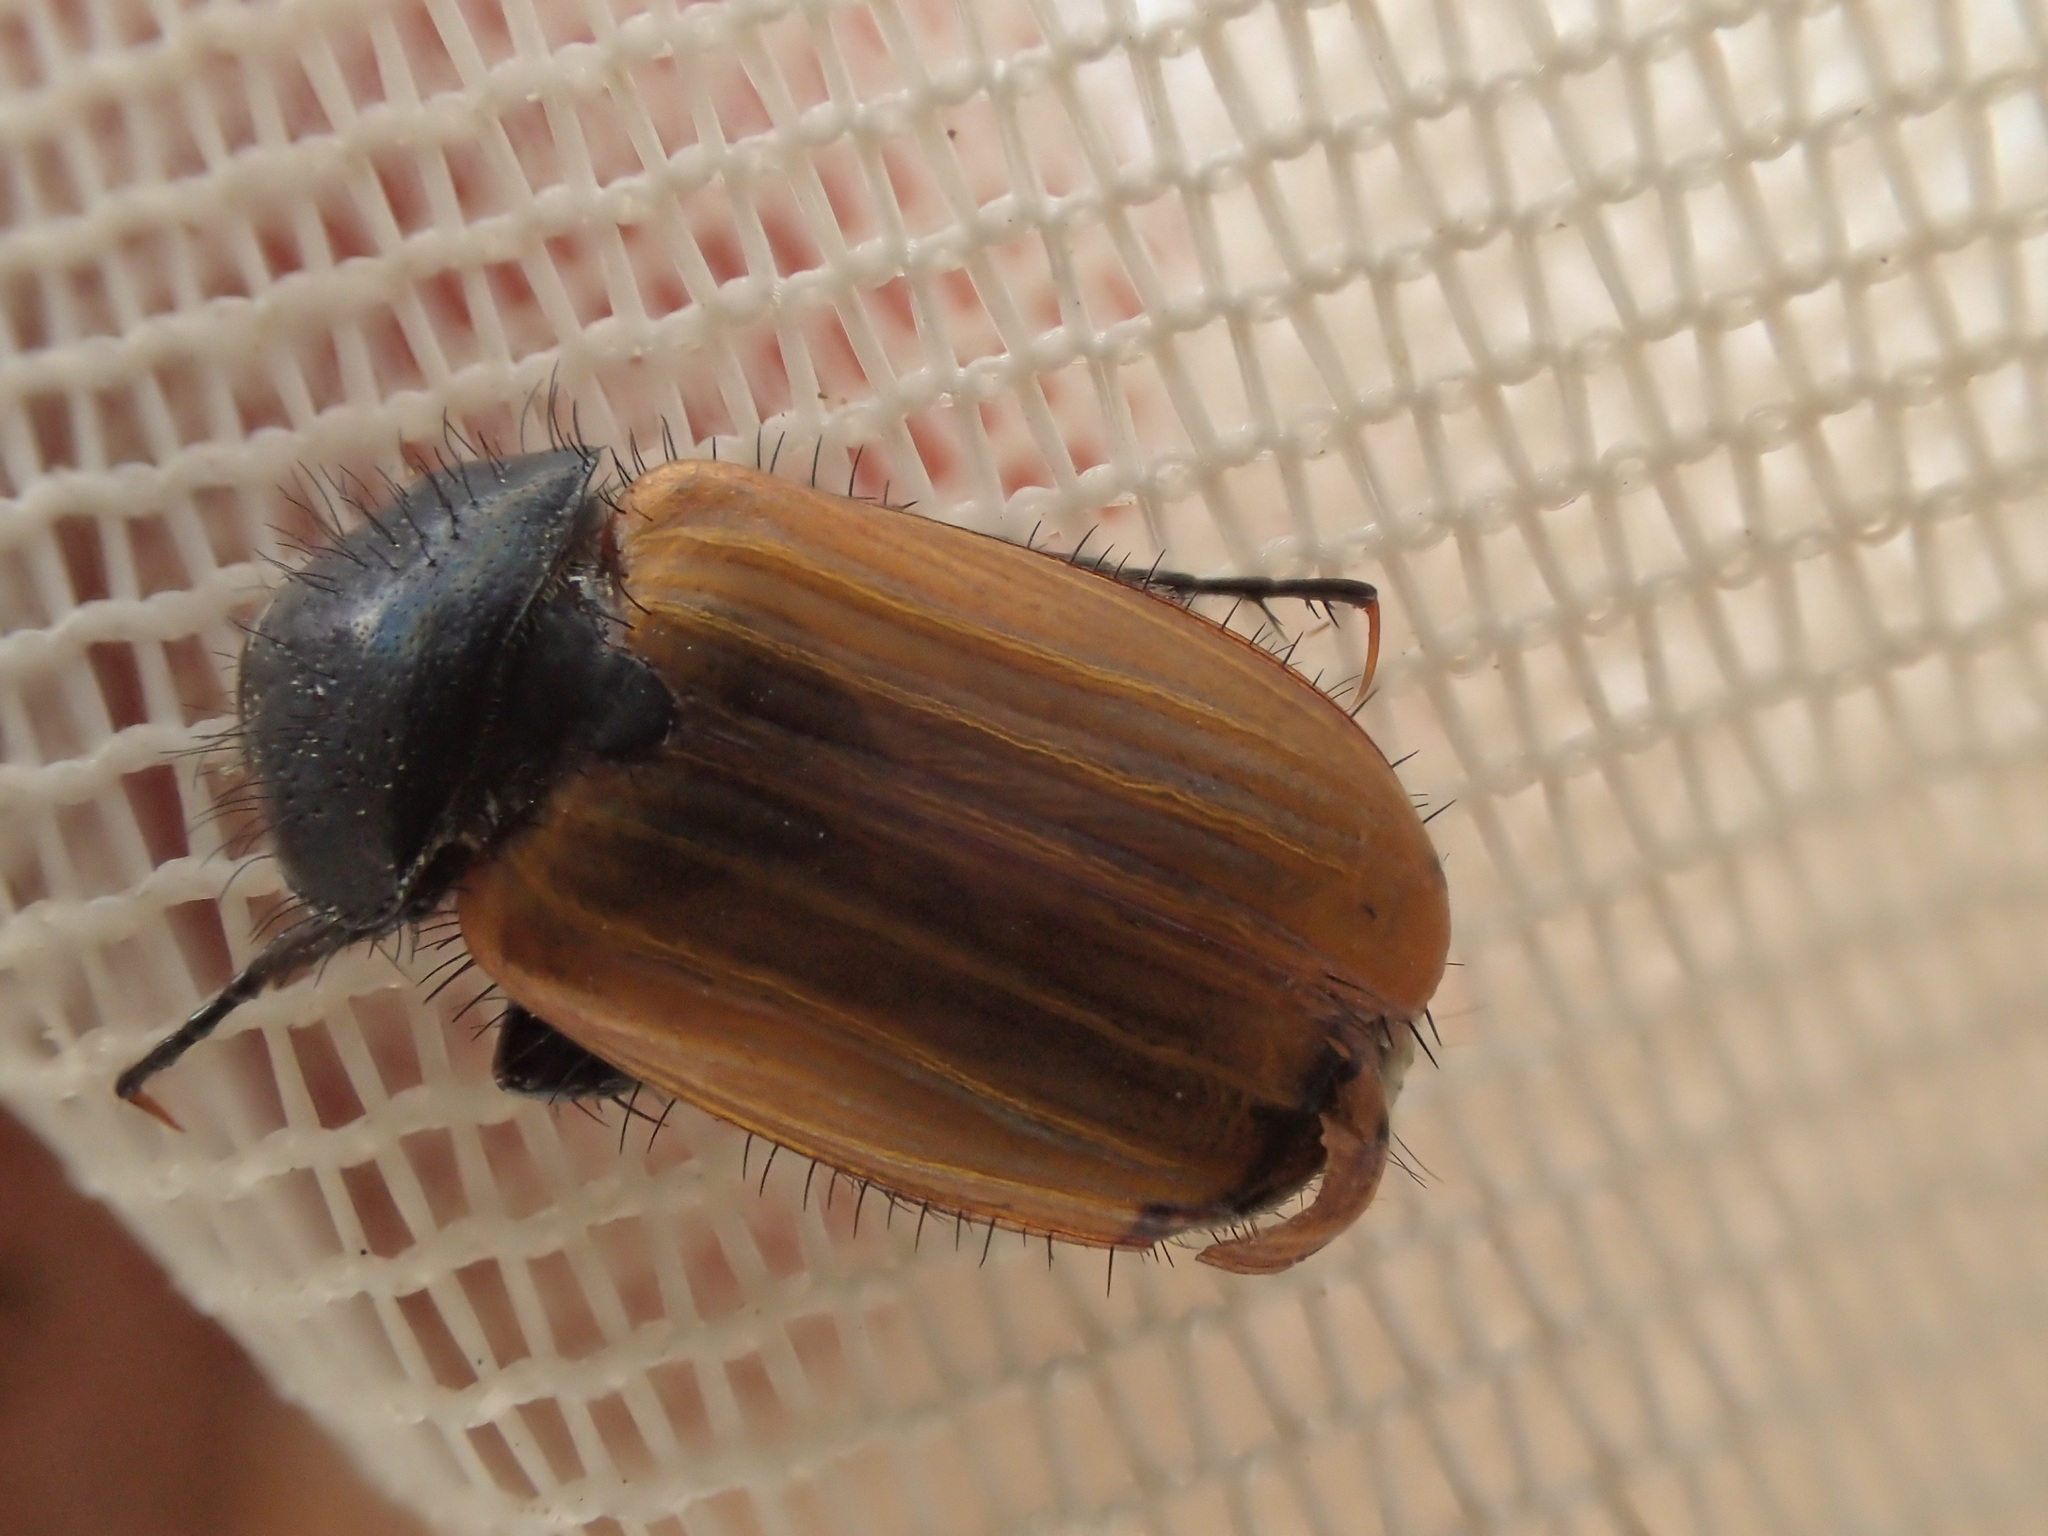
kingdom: Animalia
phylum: Arthropoda
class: Insecta
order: Coleoptera
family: Scarabaeidae
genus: Phyllotocus
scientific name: Phyllotocus rufipennis
